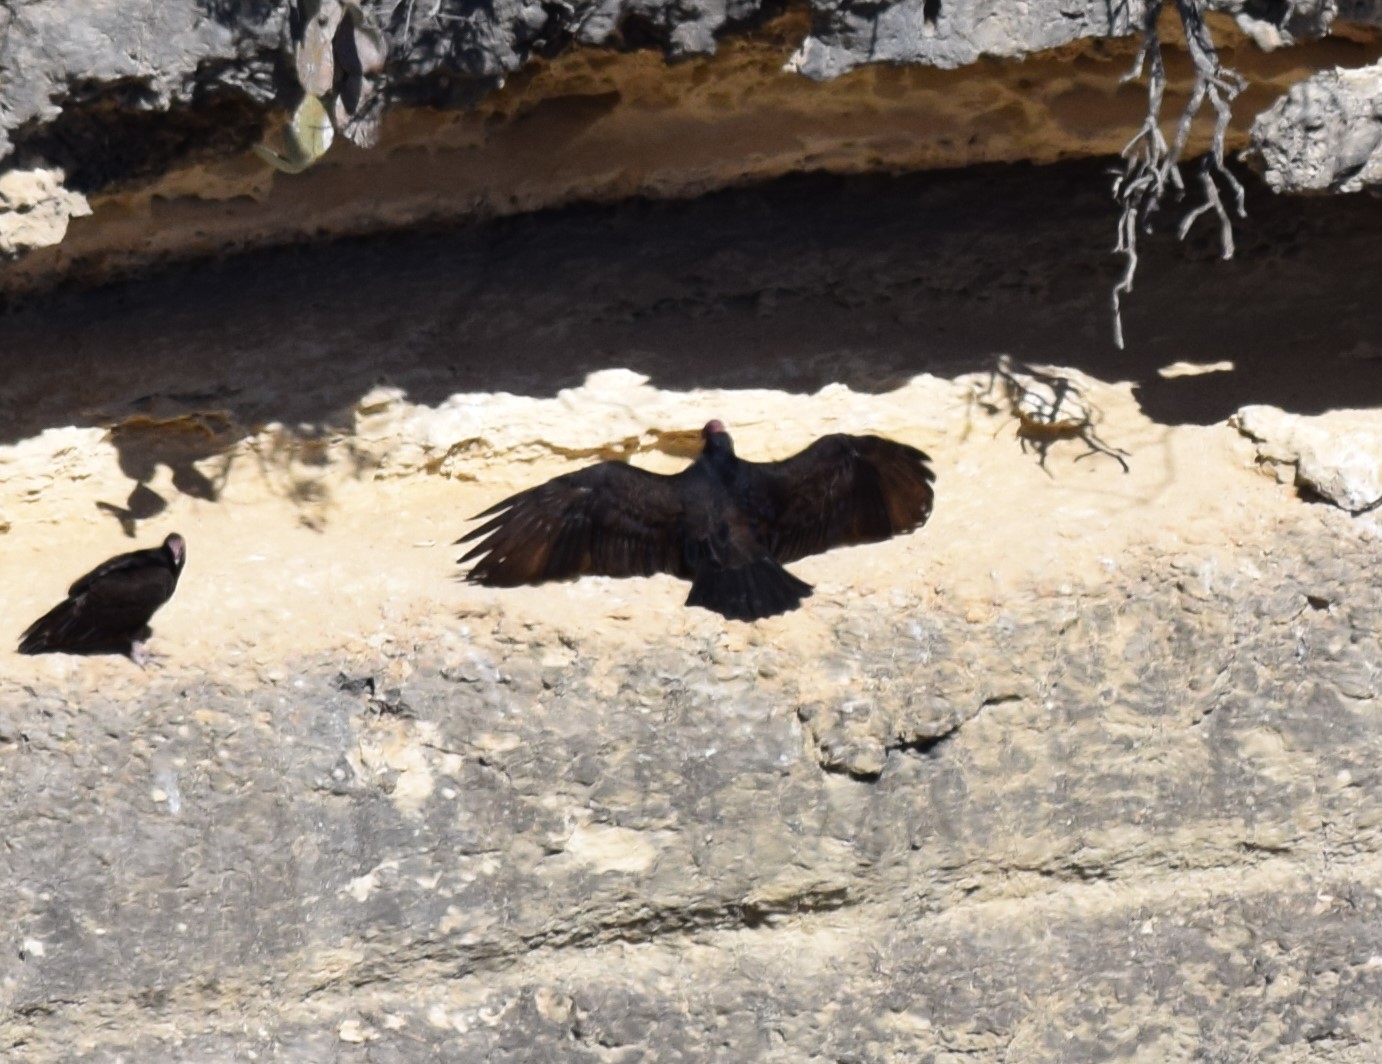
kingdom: Animalia
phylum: Chordata
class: Aves
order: Accipitriformes
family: Cathartidae
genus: Cathartes
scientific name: Cathartes aura
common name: Turkey vulture
